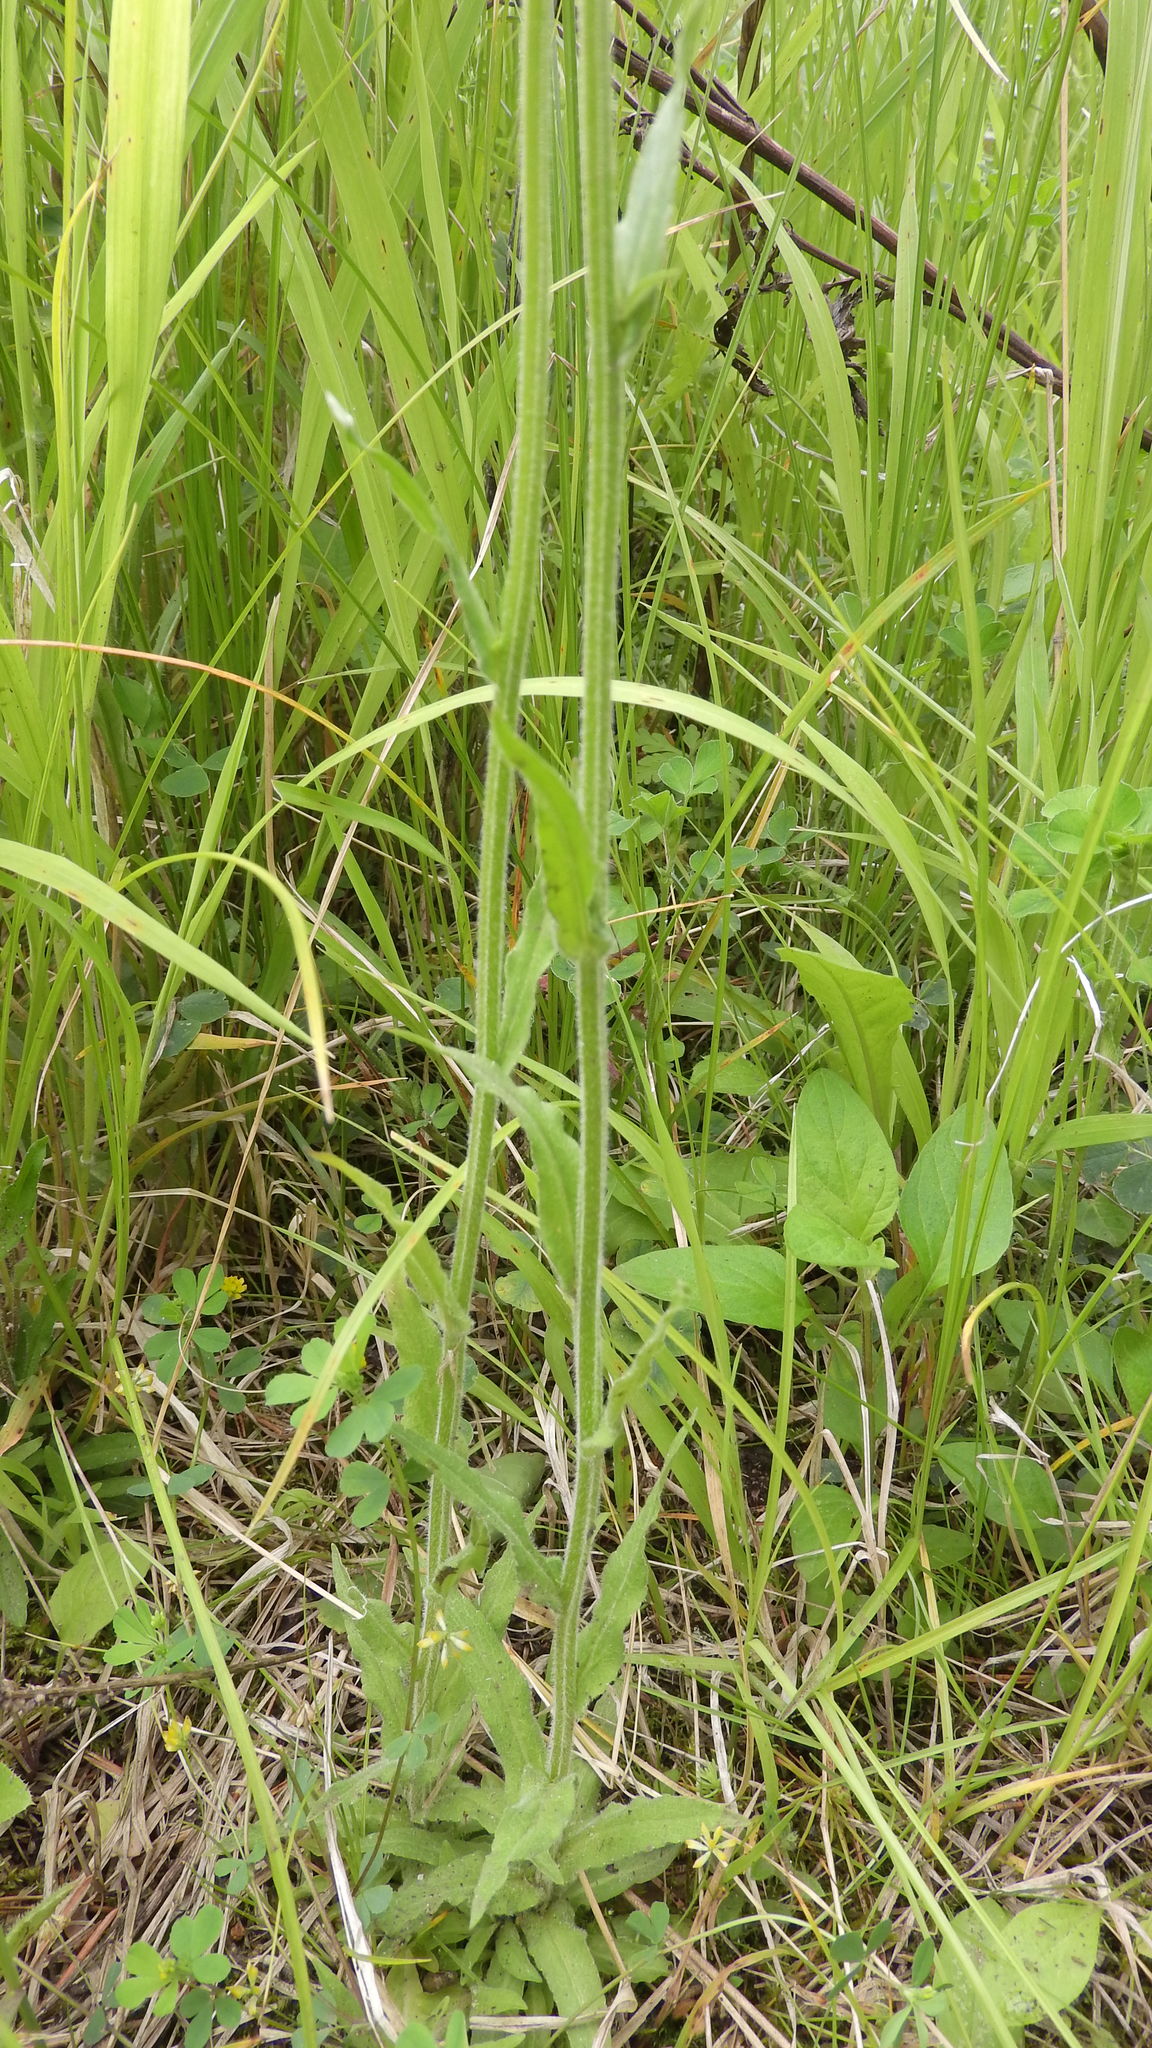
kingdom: Plantae
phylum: Tracheophyta
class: Magnoliopsida
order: Asterales
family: Campanulaceae
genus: Campanula
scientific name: Campanula patula
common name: Spreading bellflower
